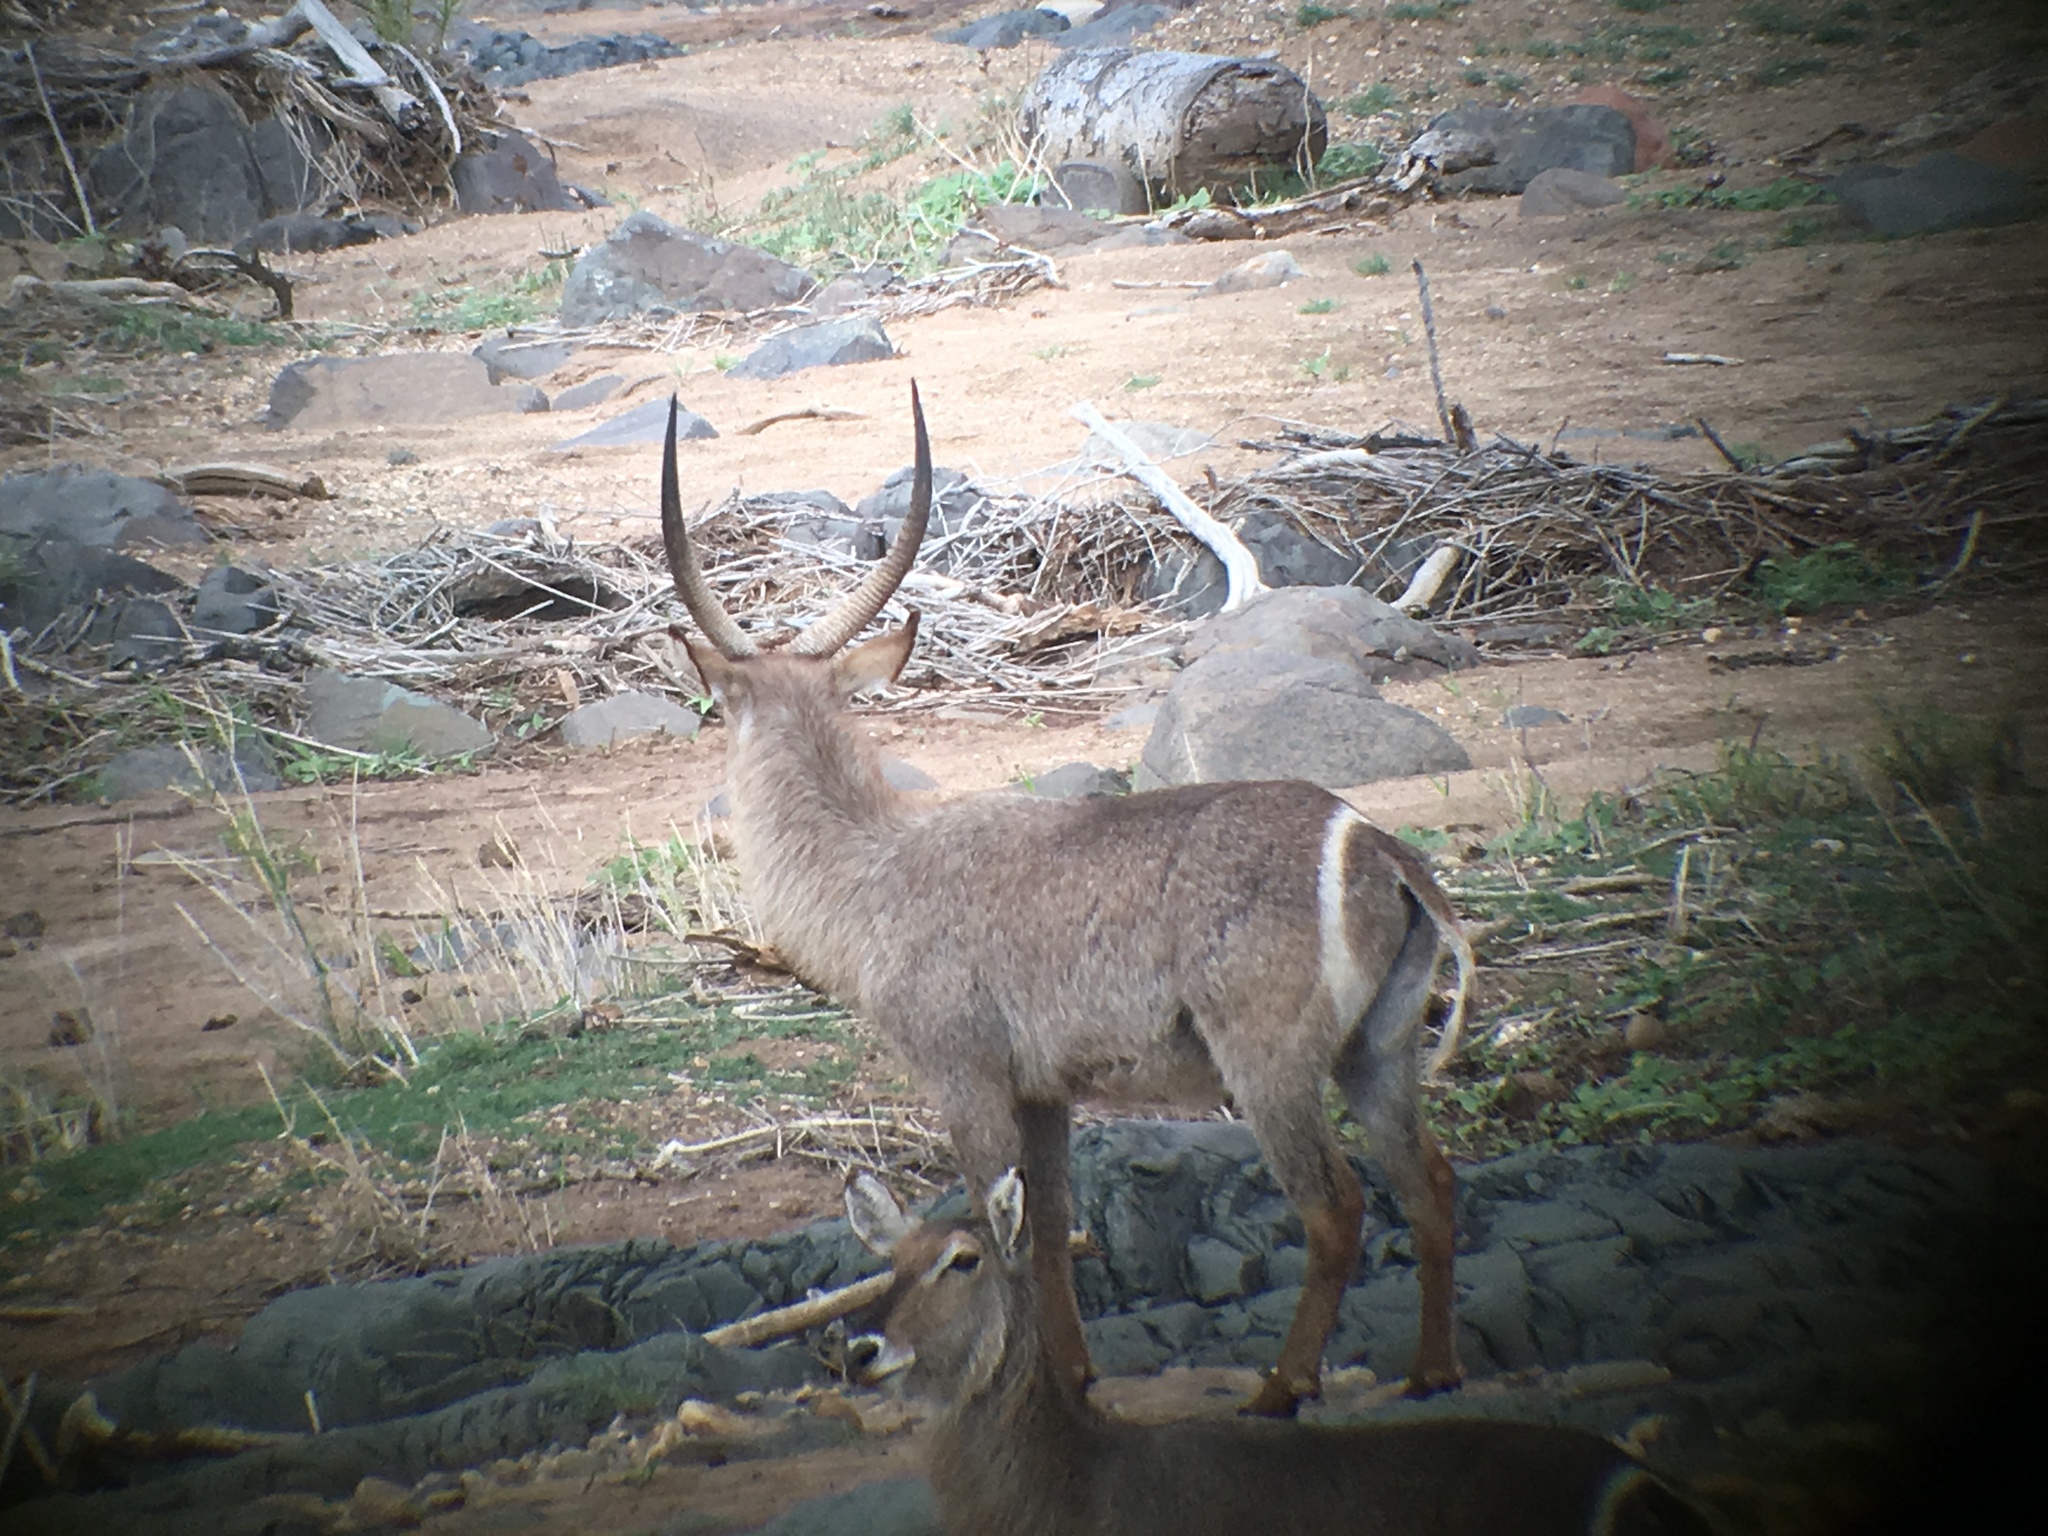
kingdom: Animalia
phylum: Chordata
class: Mammalia
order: Artiodactyla
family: Bovidae
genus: Kobus
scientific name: Kobus ellipsiprymnus
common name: Waterbuck
